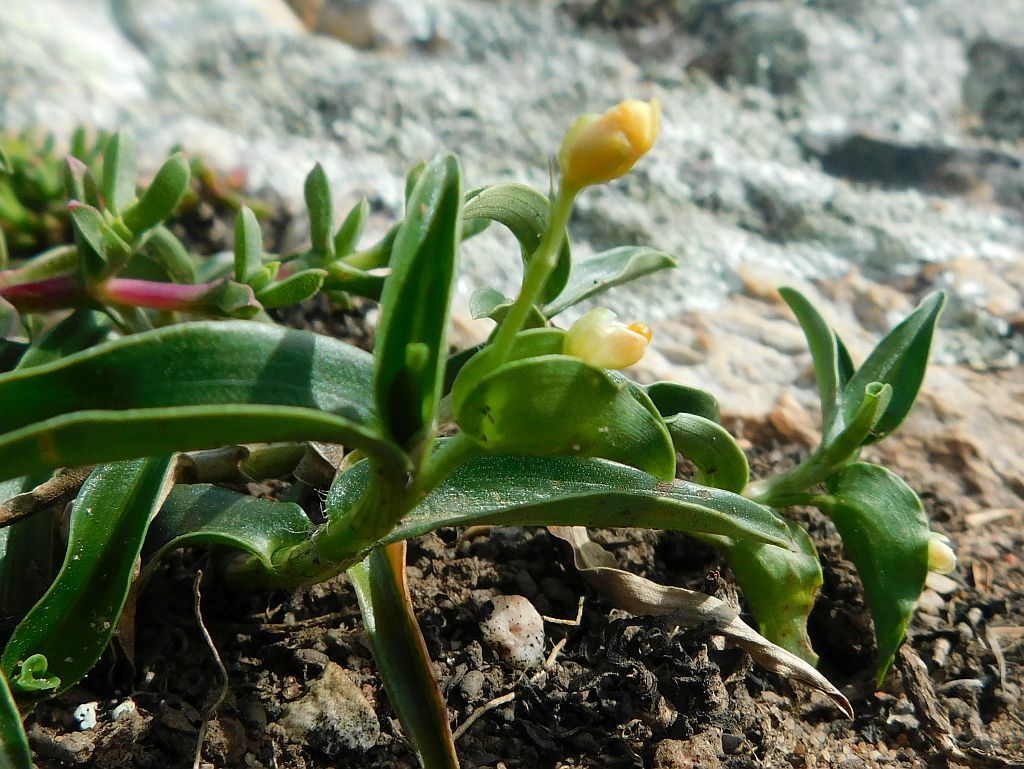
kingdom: Plantae
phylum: Tracheophyta
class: Liliopsida
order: Commelinales
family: Commelinaceae
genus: Commelina
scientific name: Commelina africana
